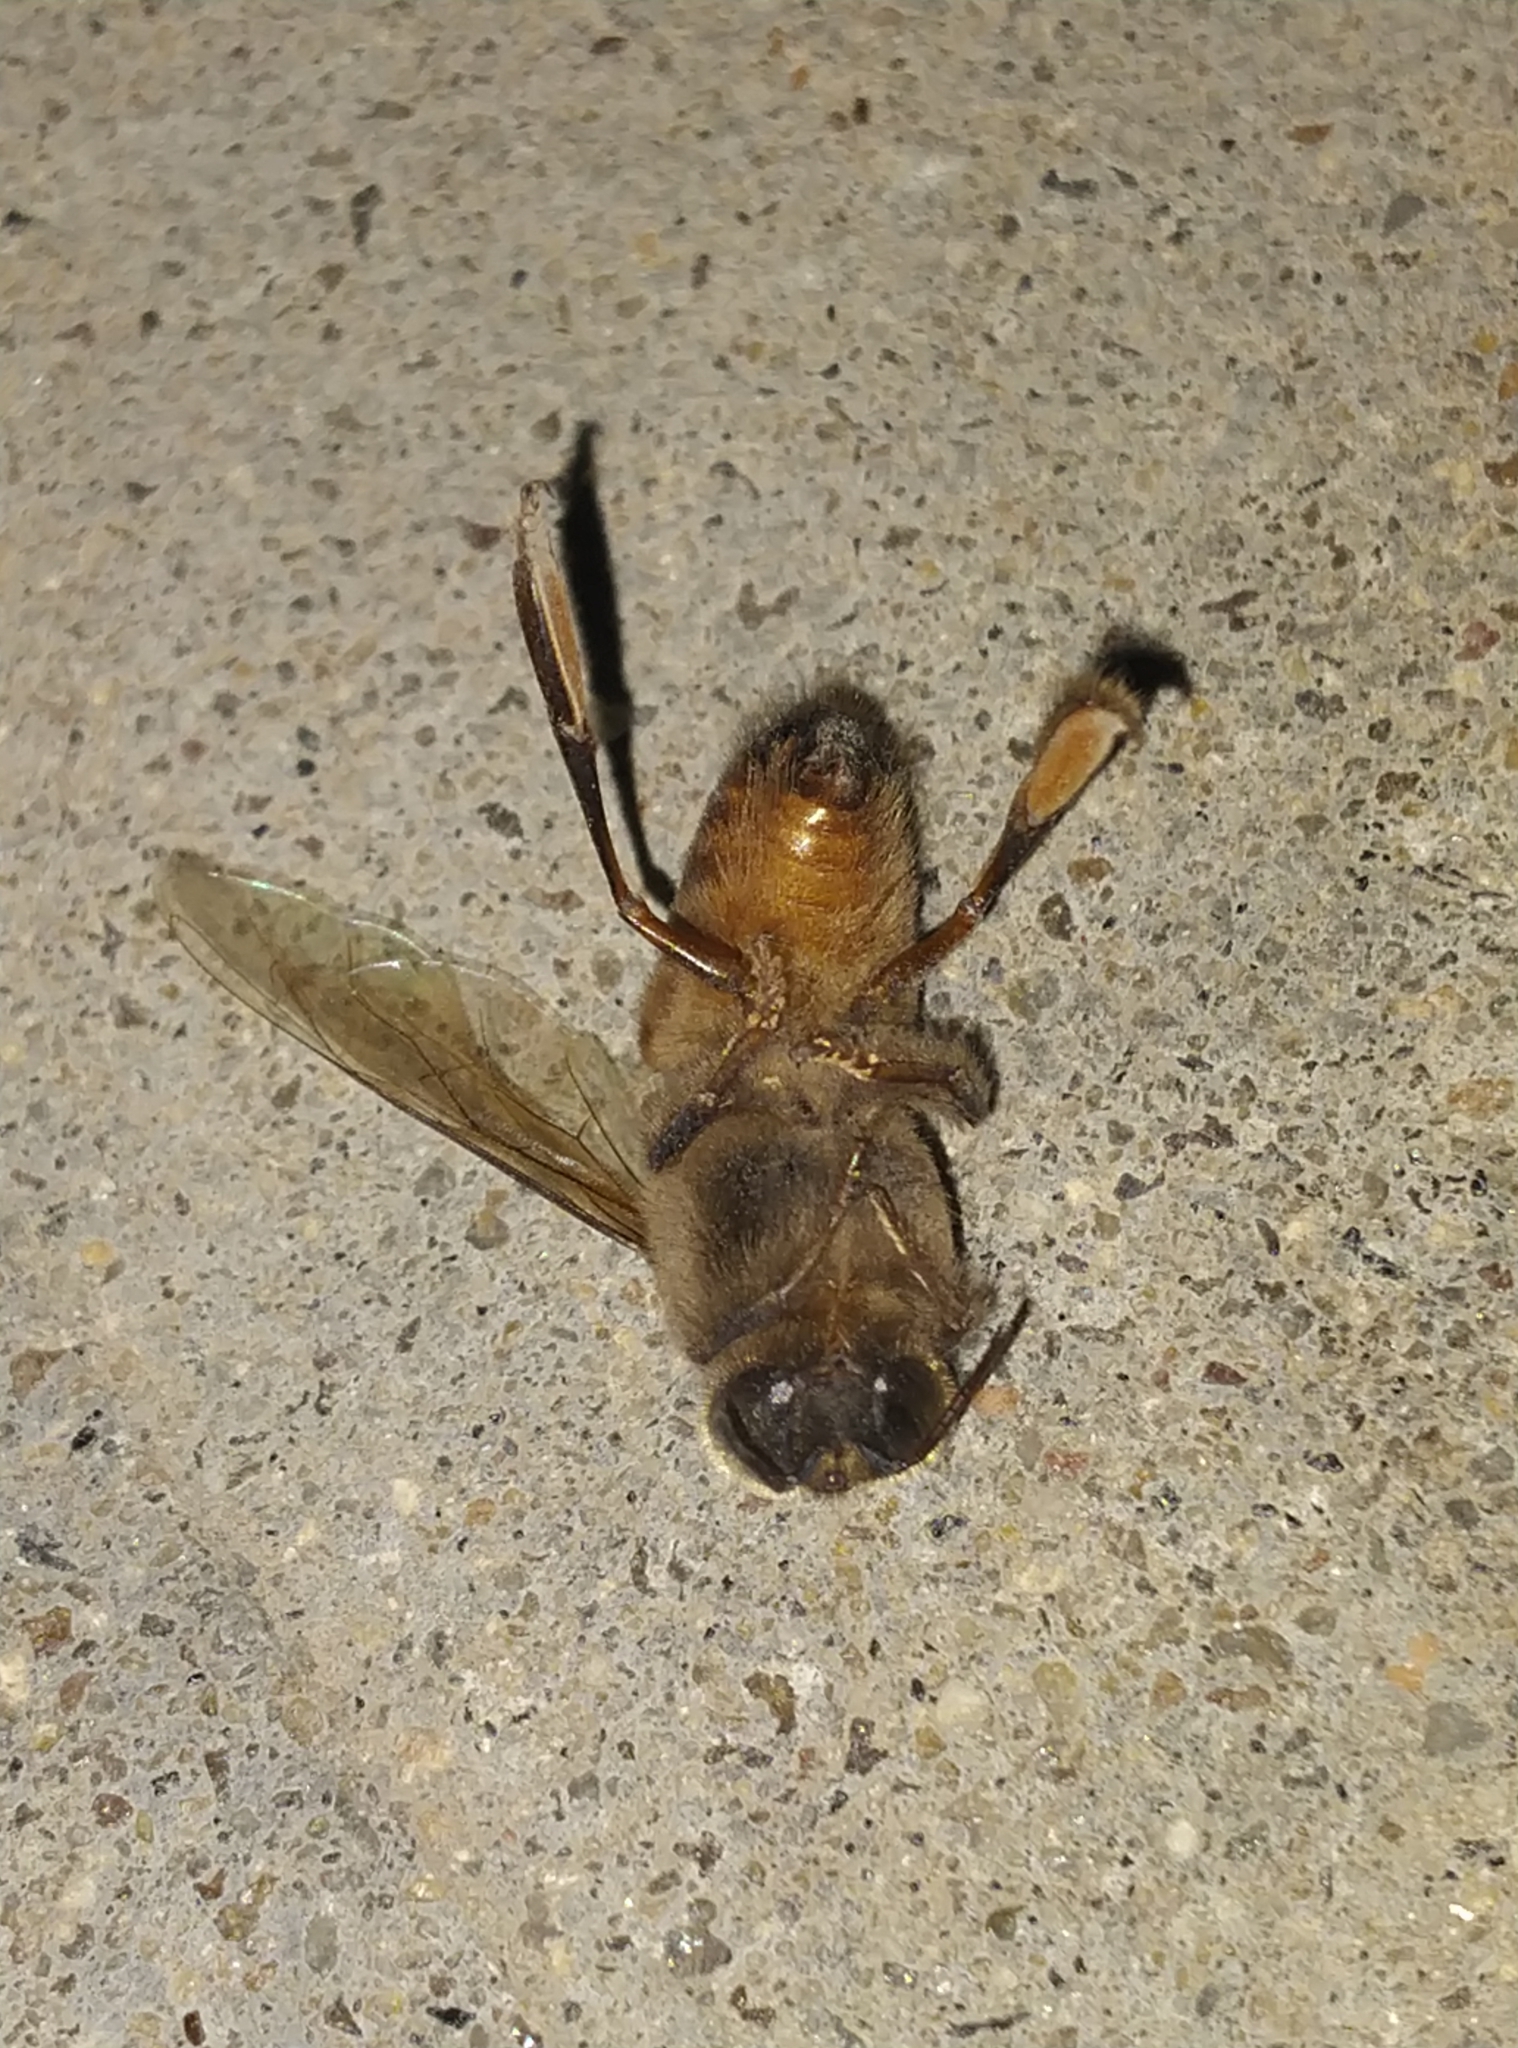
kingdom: Animalia
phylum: Arthropoda
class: Insecta
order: Hymenoptera
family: Apidae
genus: Apis
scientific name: Apis cerana
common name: Honey bee
